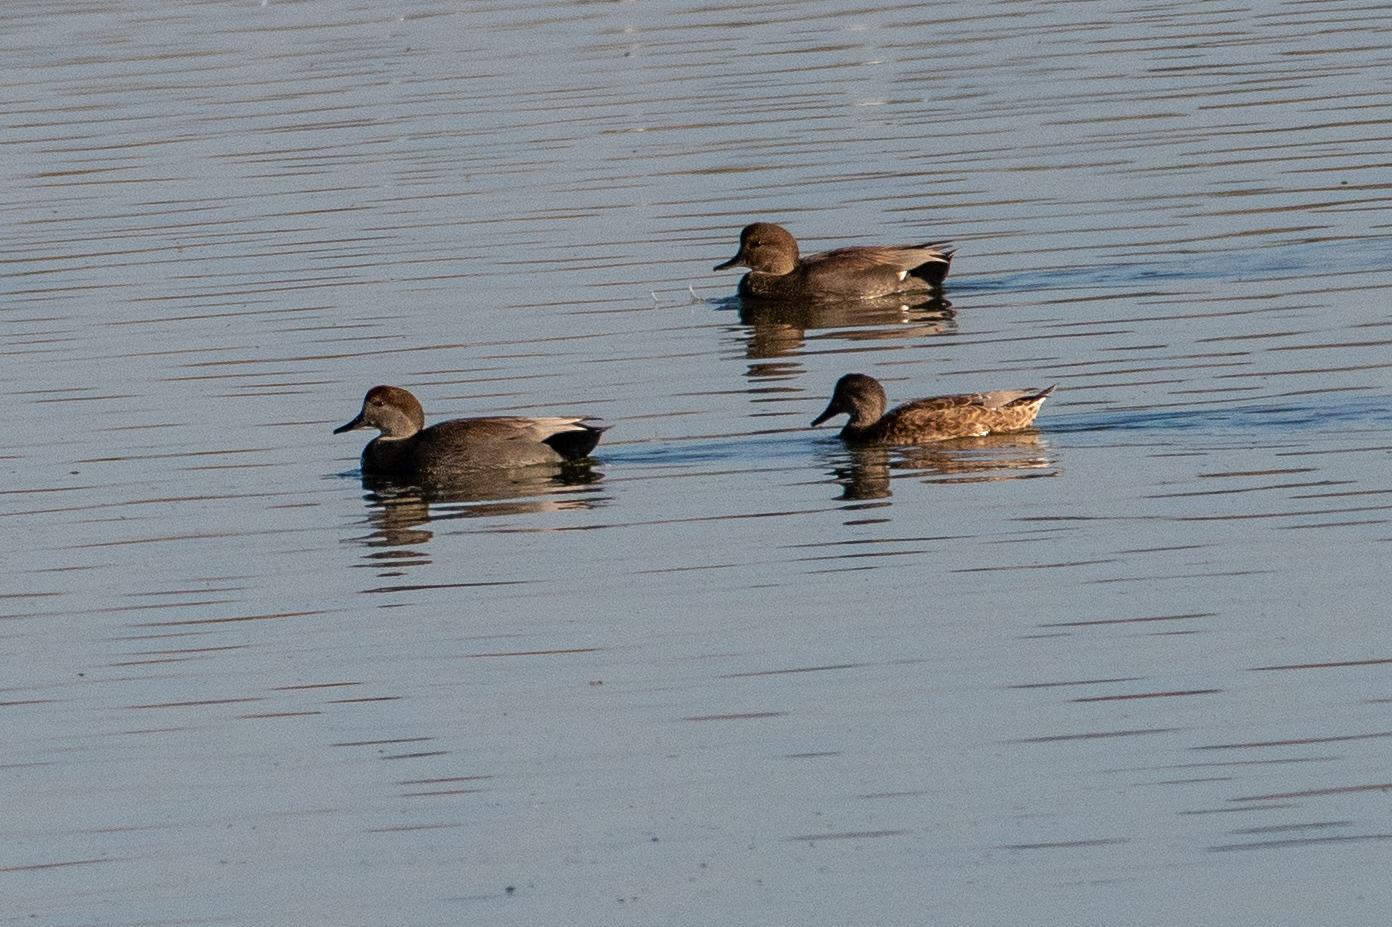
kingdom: Animalia
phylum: Chordata
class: Aves
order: Anseriformes
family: Anatidae
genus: Mareca
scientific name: Mareca strepera
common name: Gadwall
